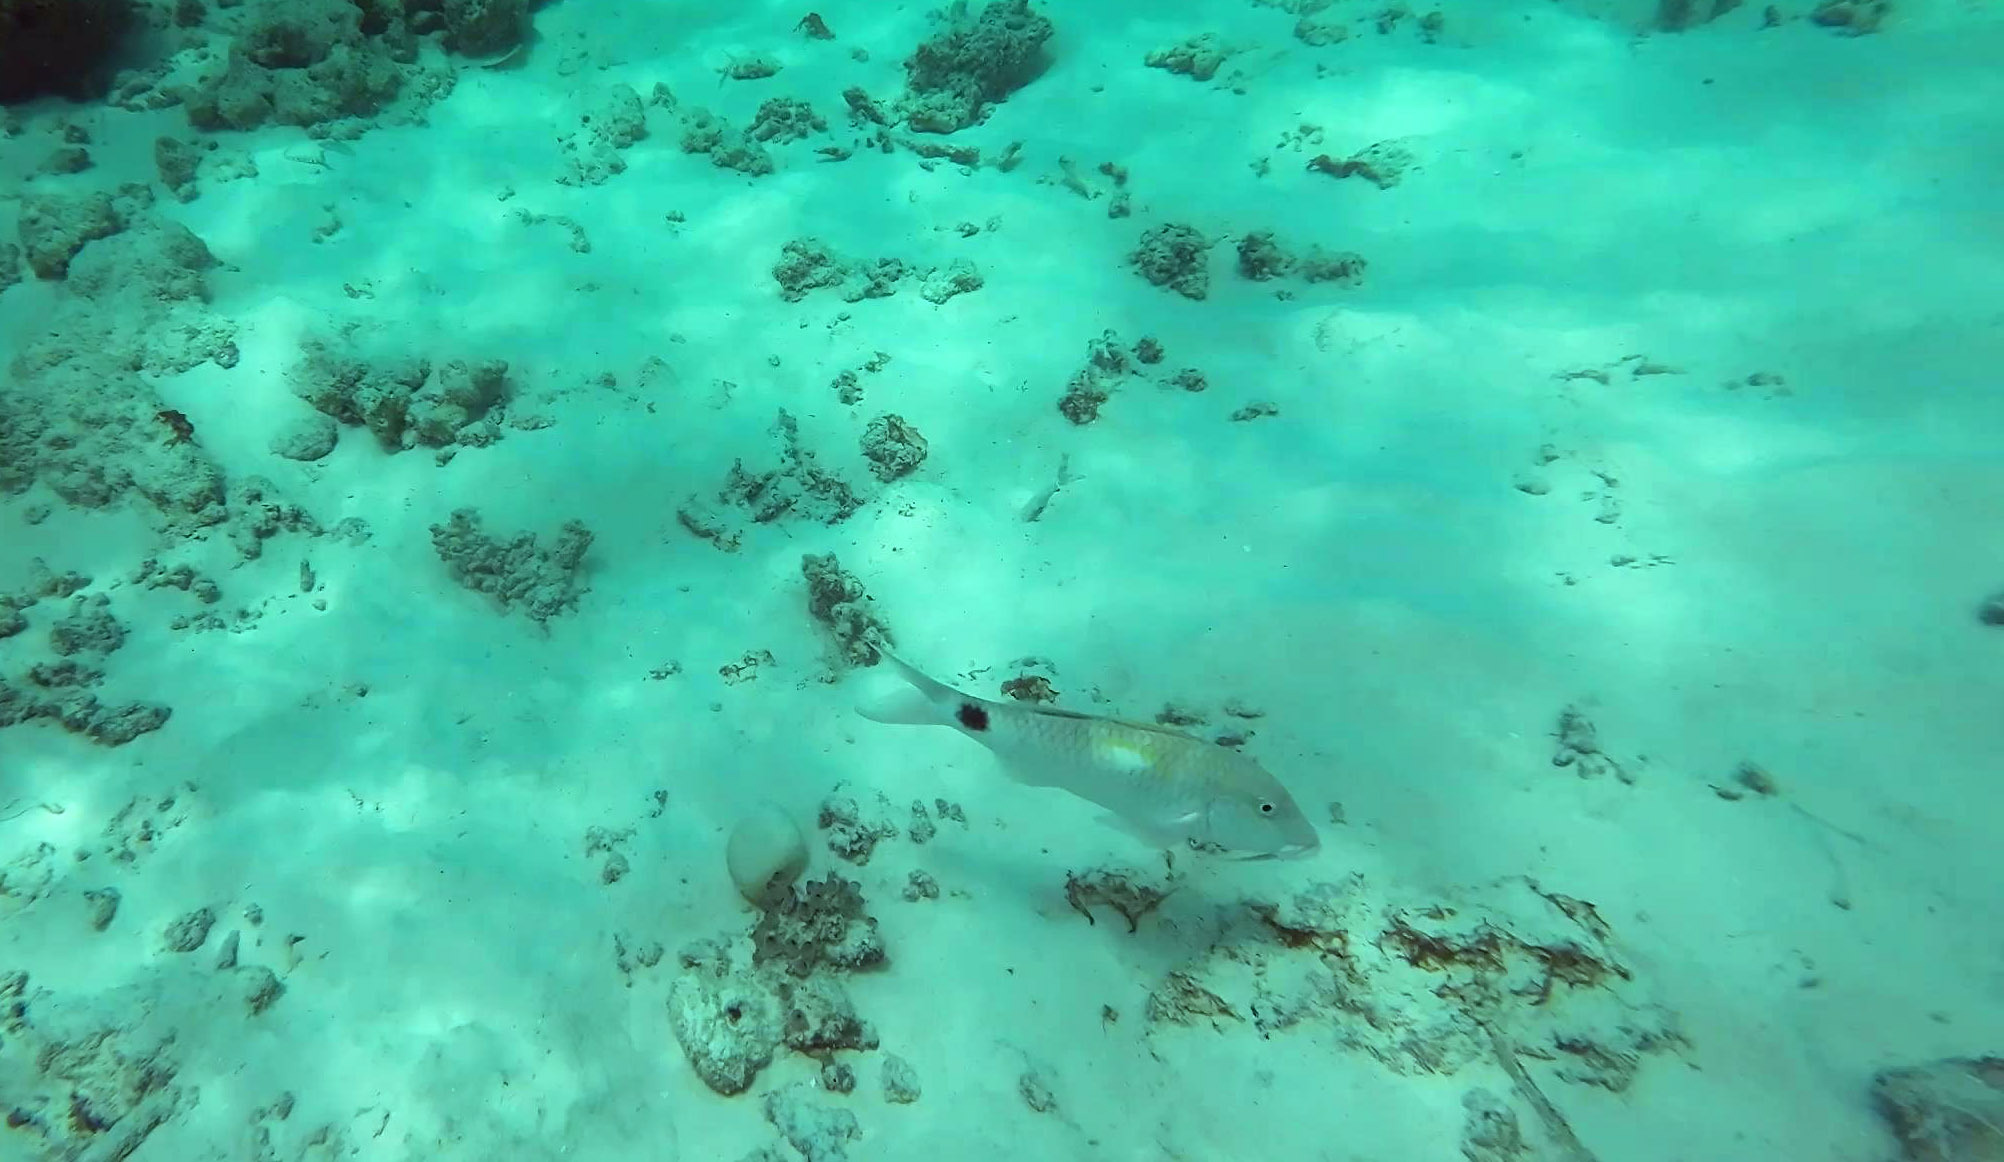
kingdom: Animalia
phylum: Chordata
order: Perciformes
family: Mullidae
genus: Parupeneus
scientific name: Parupeneus indicus
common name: Indian goatfish
